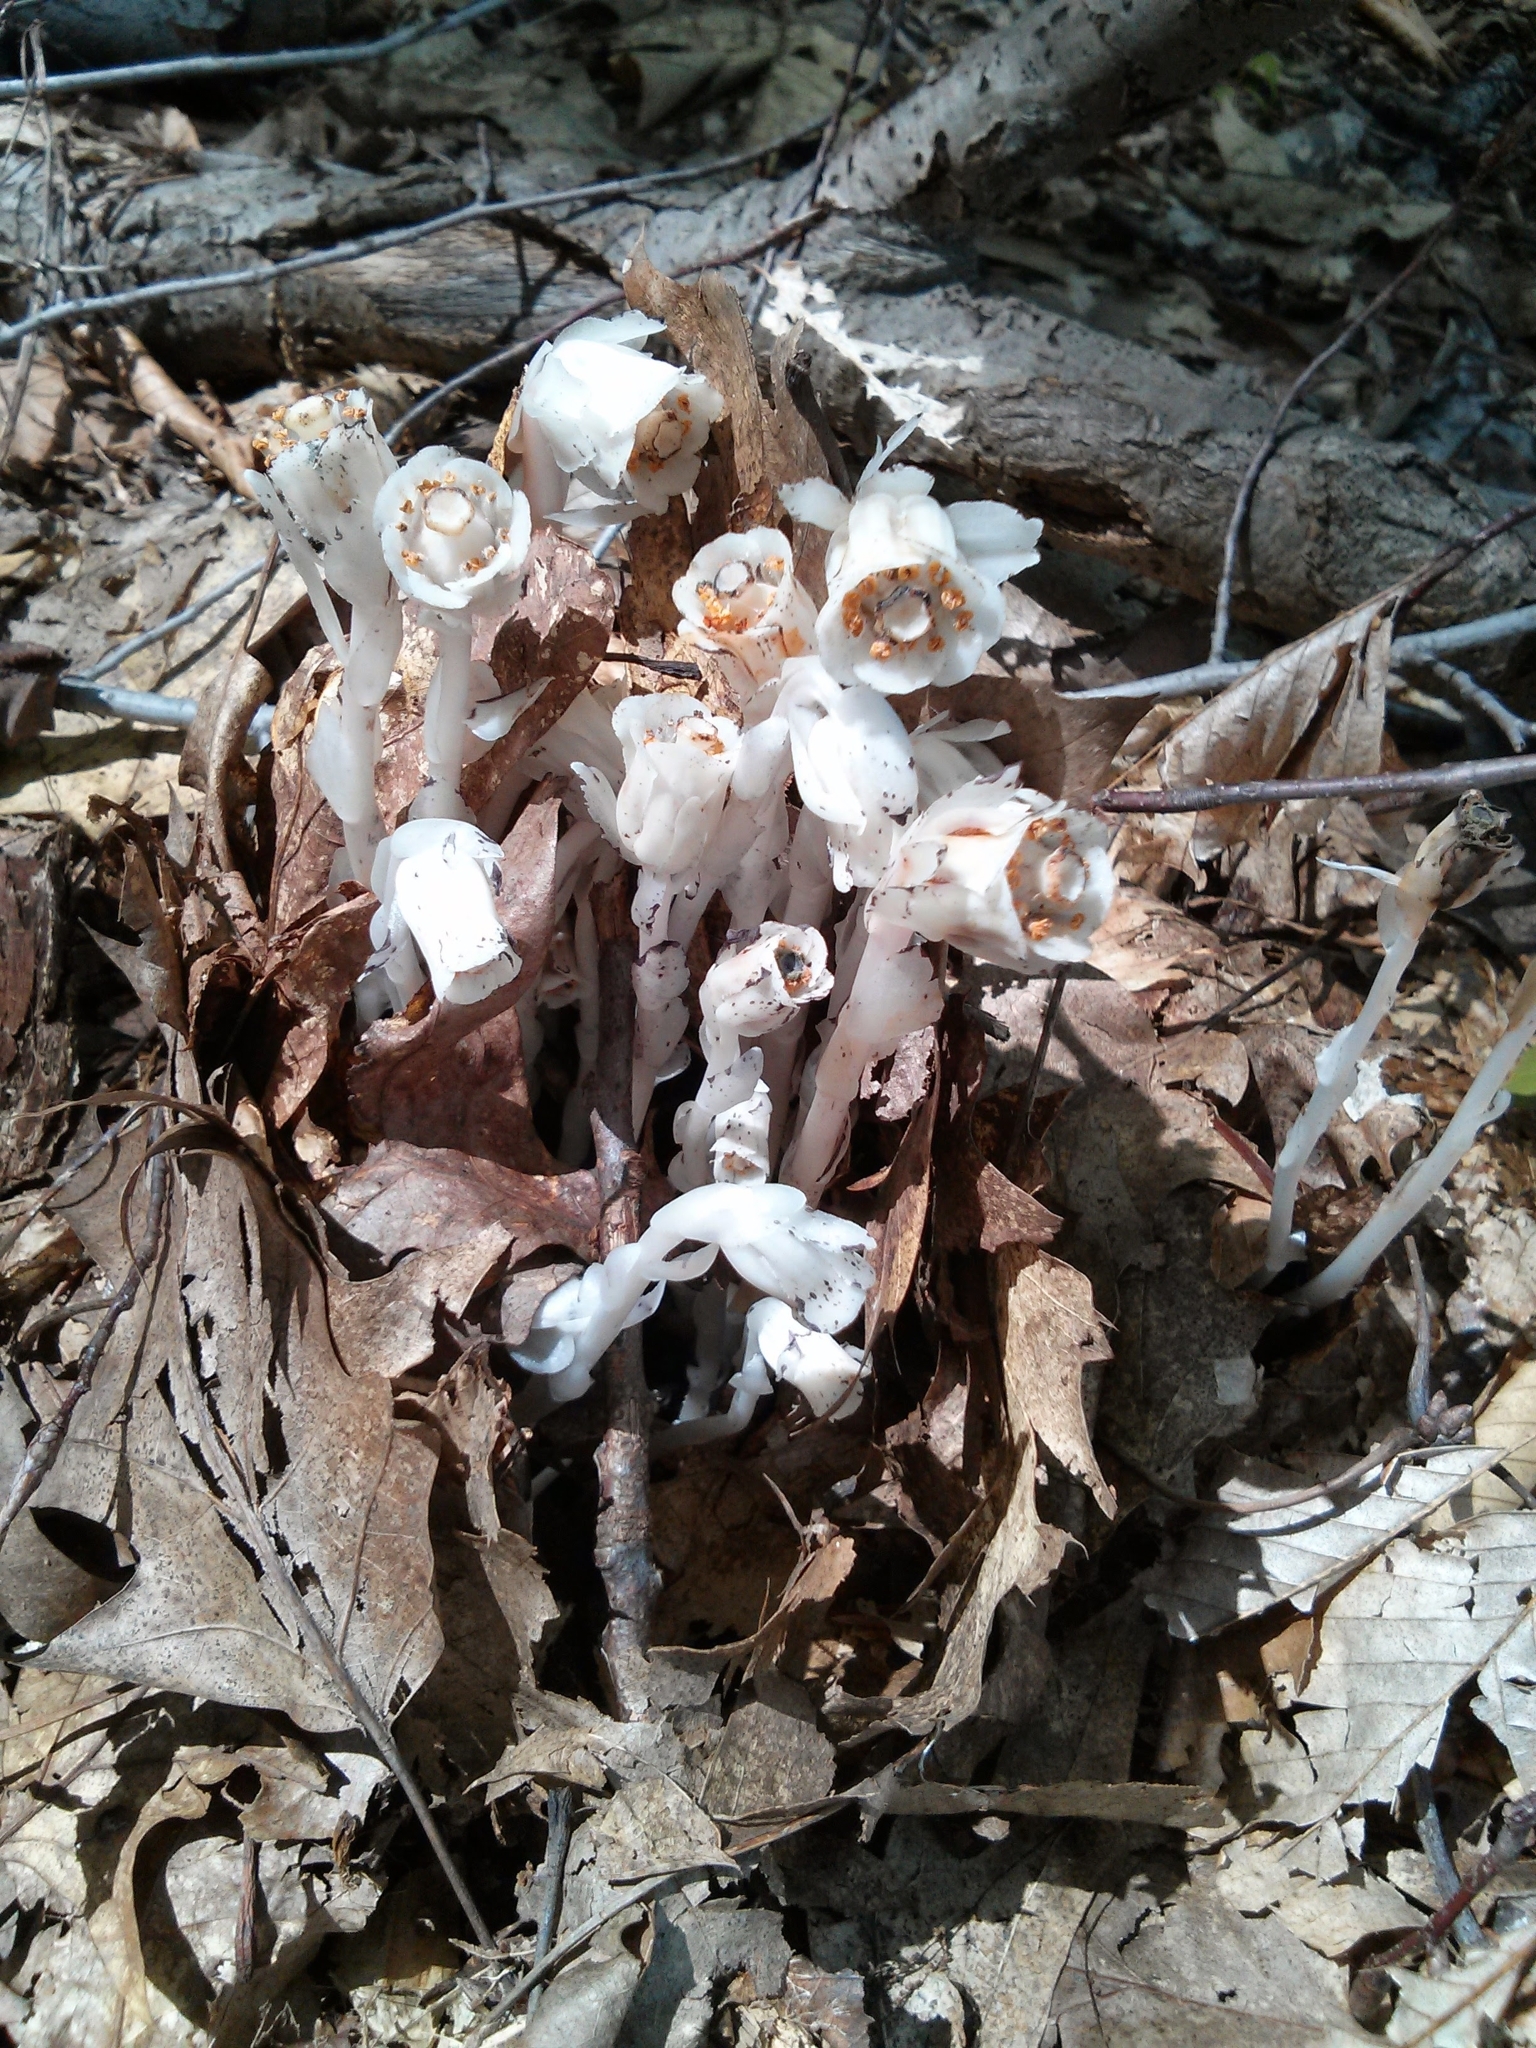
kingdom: Plantae
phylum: Tracheophyta
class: Magnoliopsida
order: Ericales
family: Ericaceae
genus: Monotropa
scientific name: Monotropa uniflora
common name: Convulsion root
